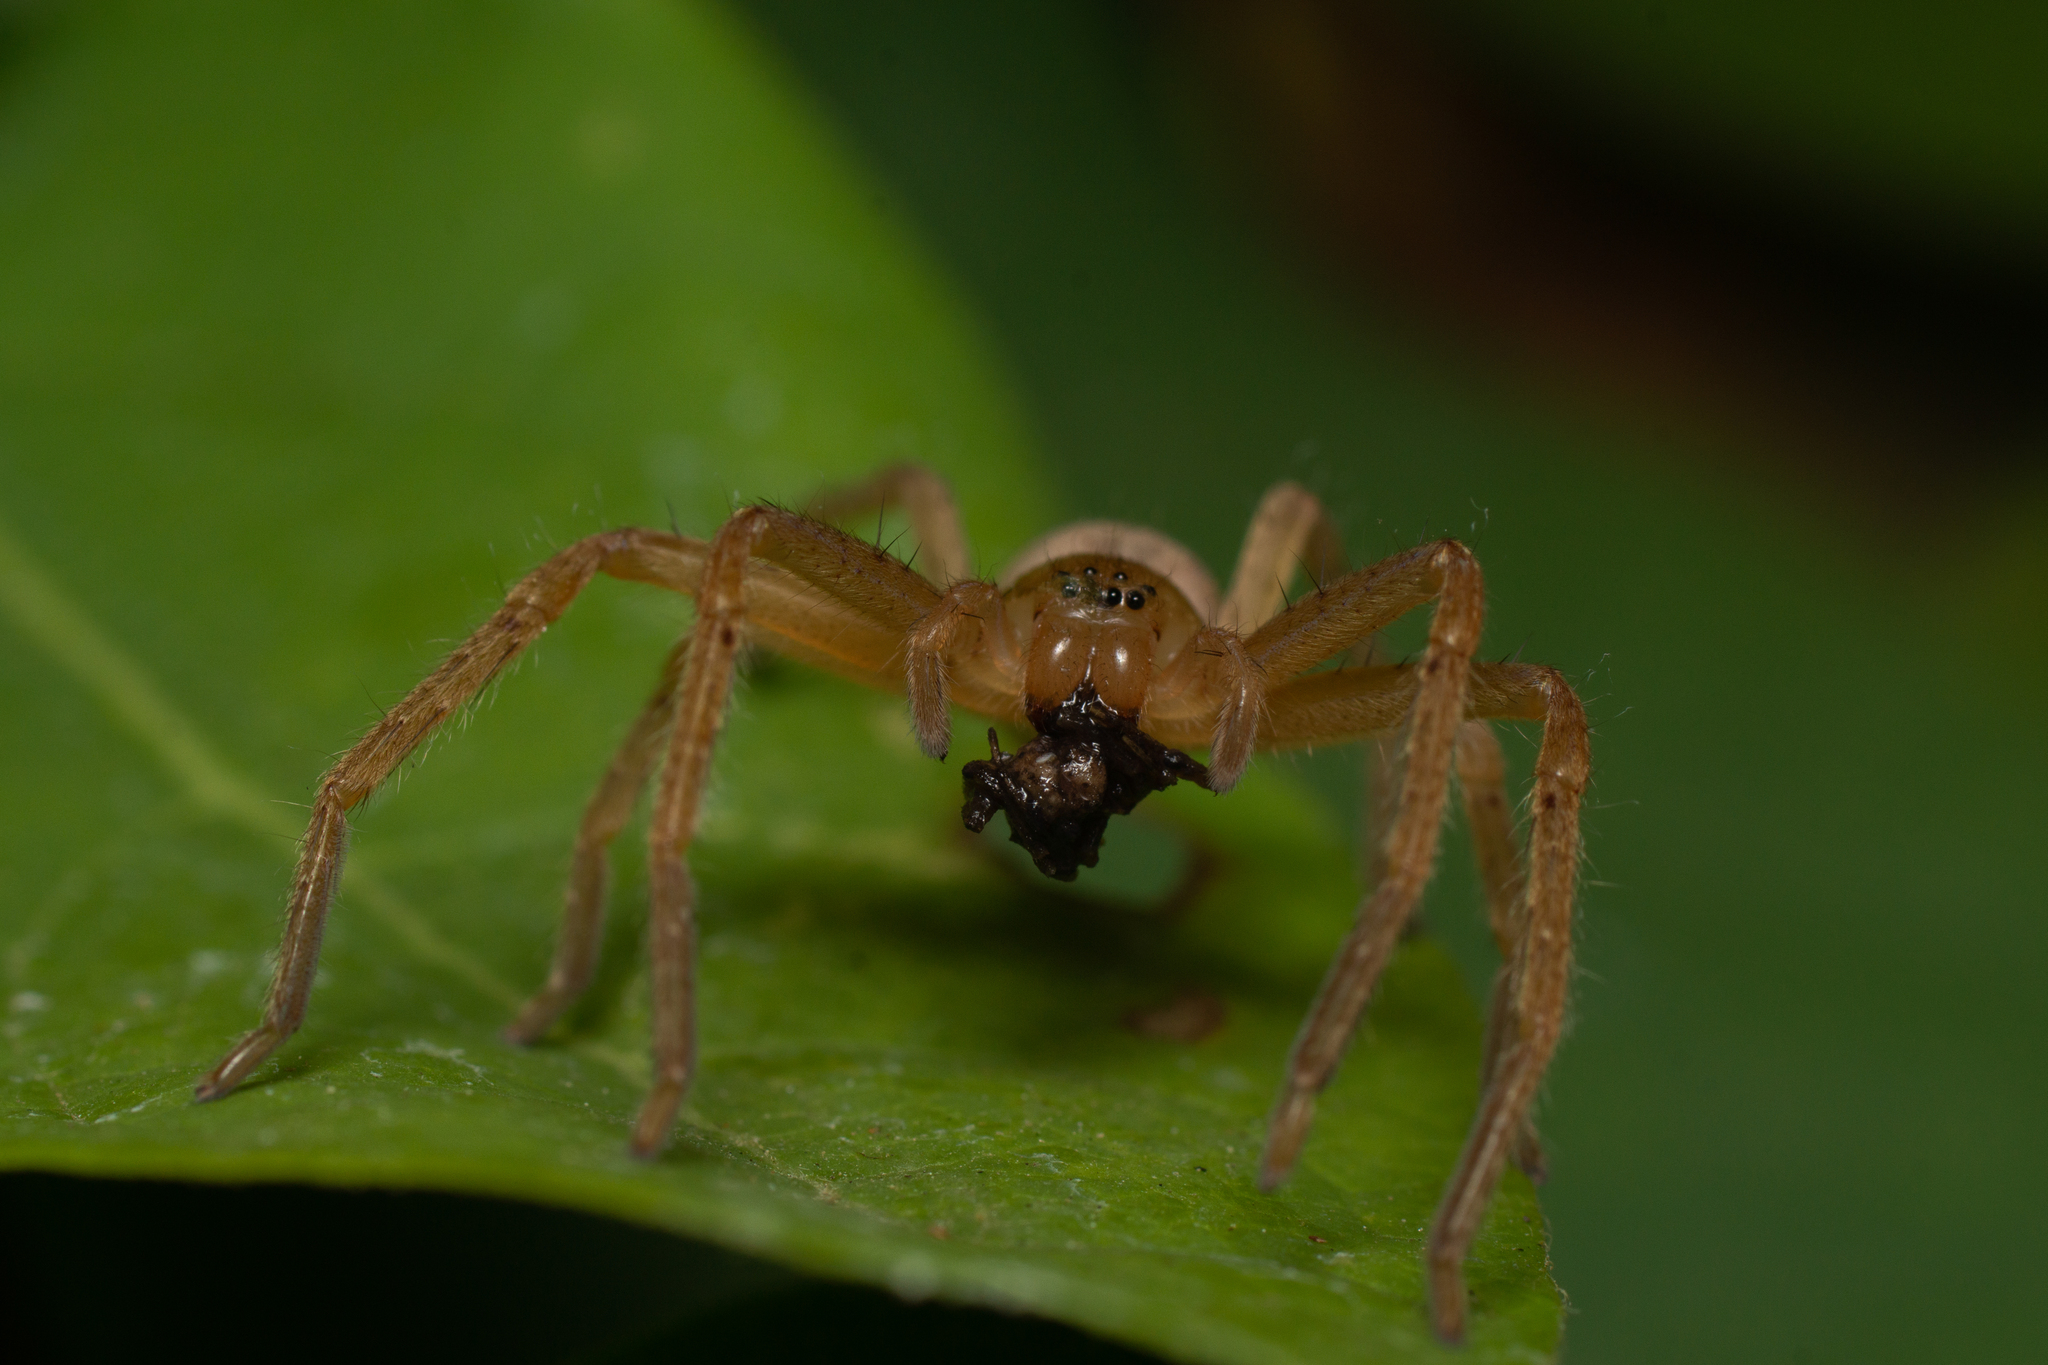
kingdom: Animalia
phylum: Arthropoda
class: Arachnida
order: Araneae
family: Sparassidae
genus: Olios
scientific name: Olios argelasius
